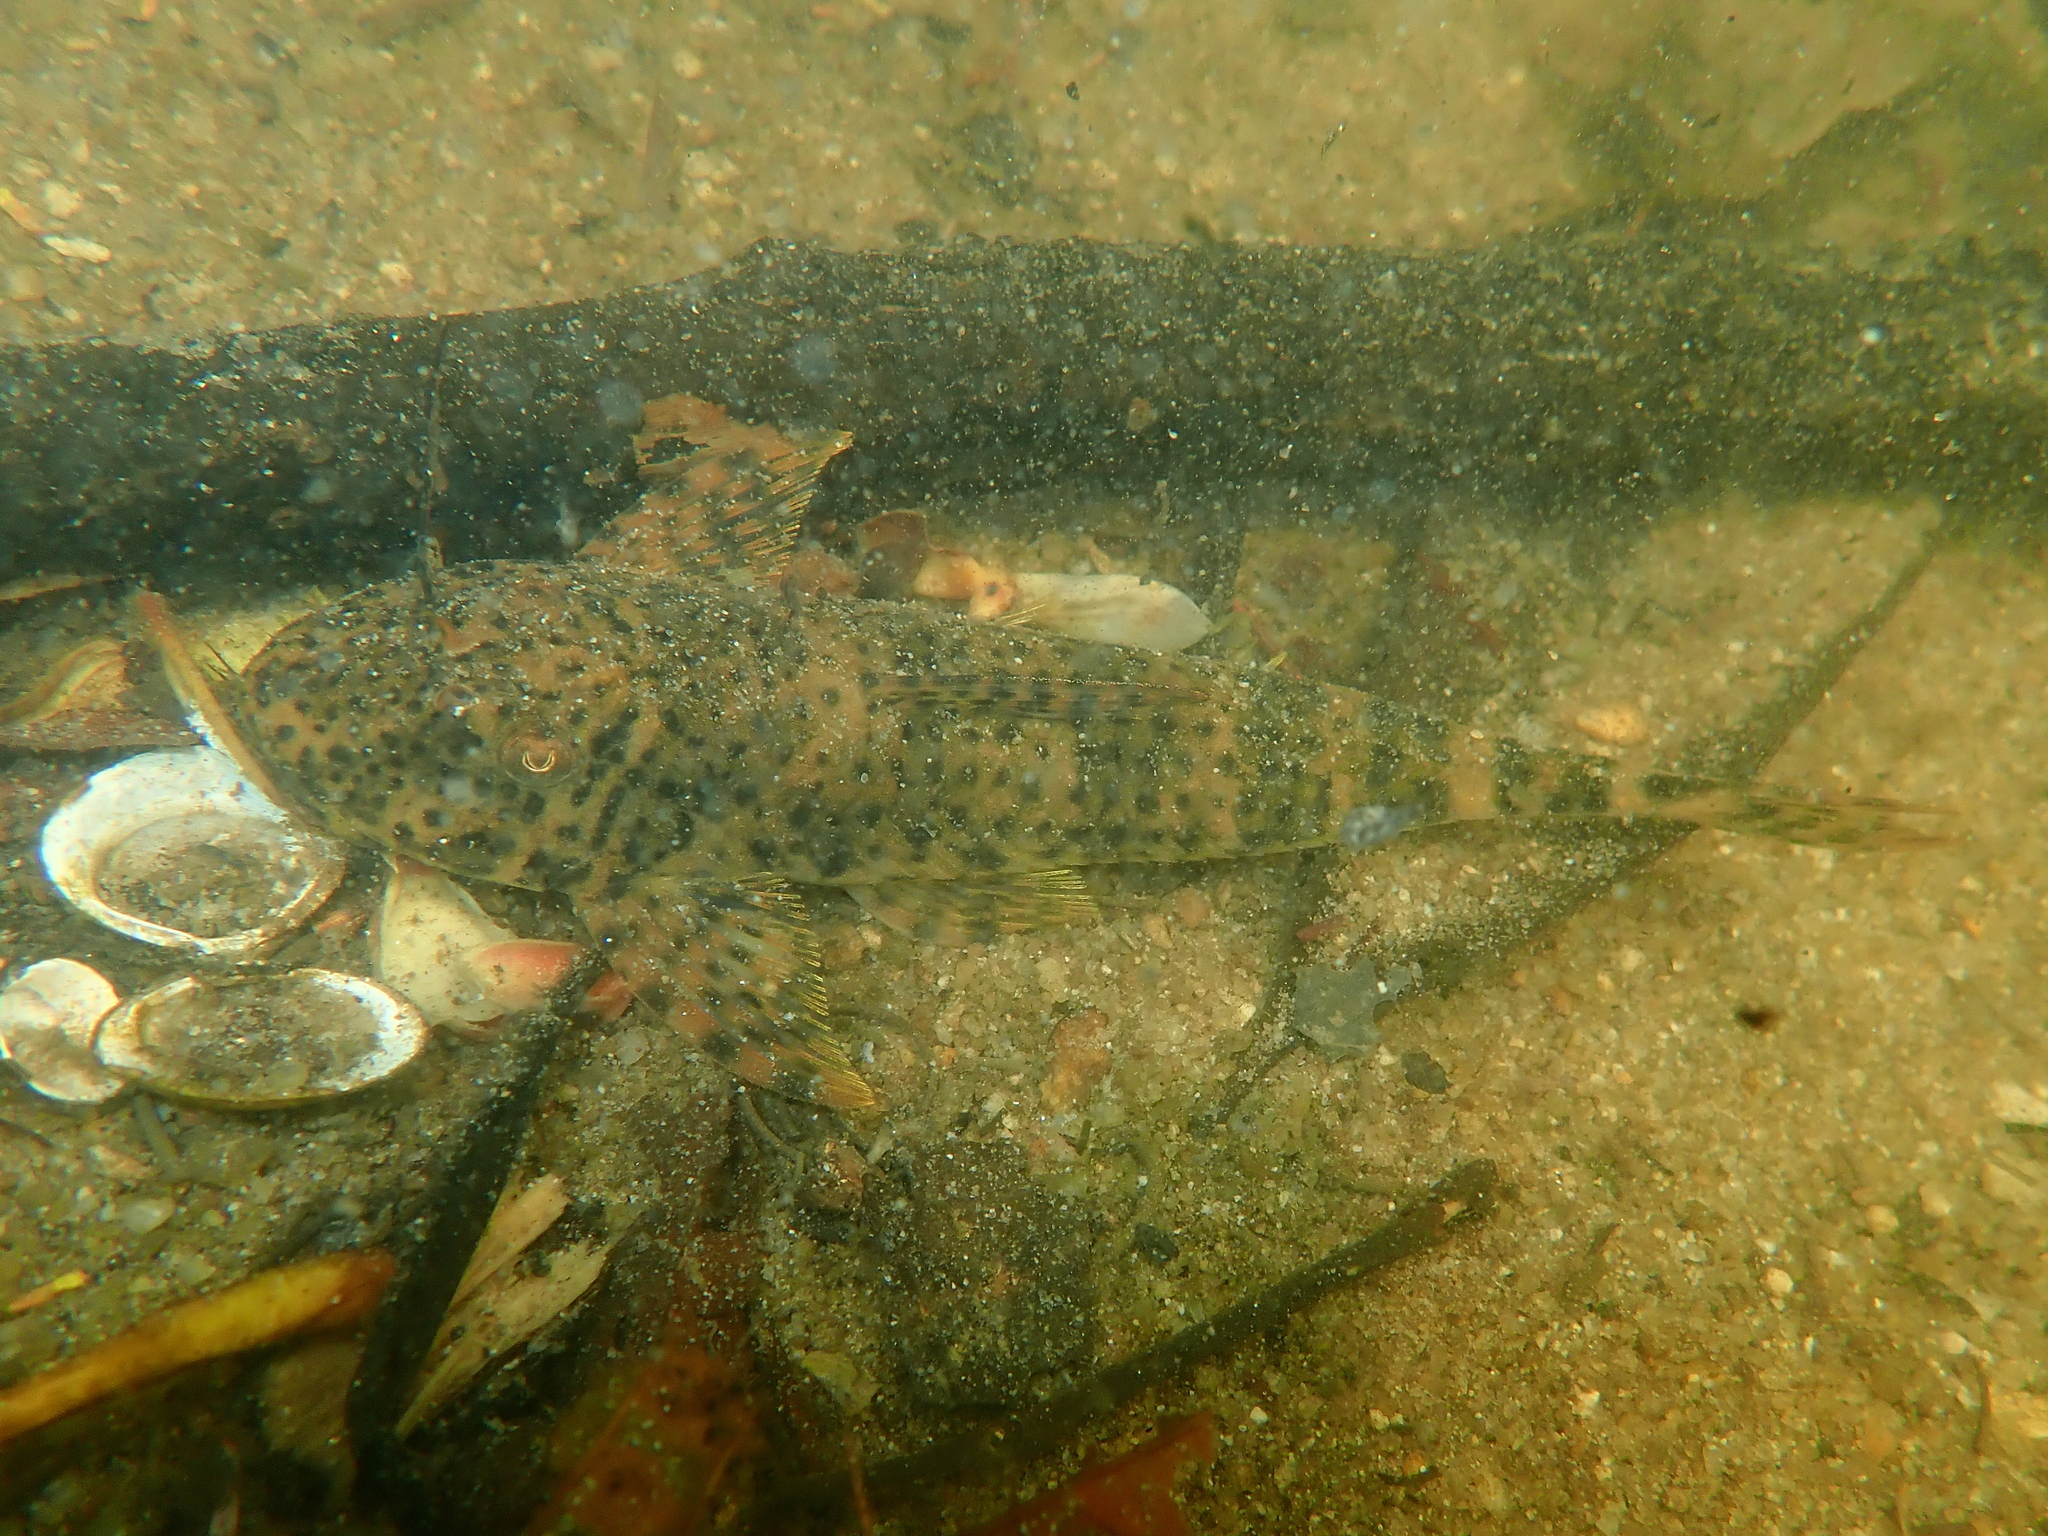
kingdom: Animalia
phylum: Chordata
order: Siluriformes
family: Loricariidae
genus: Harttia
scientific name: Harttia punctata
